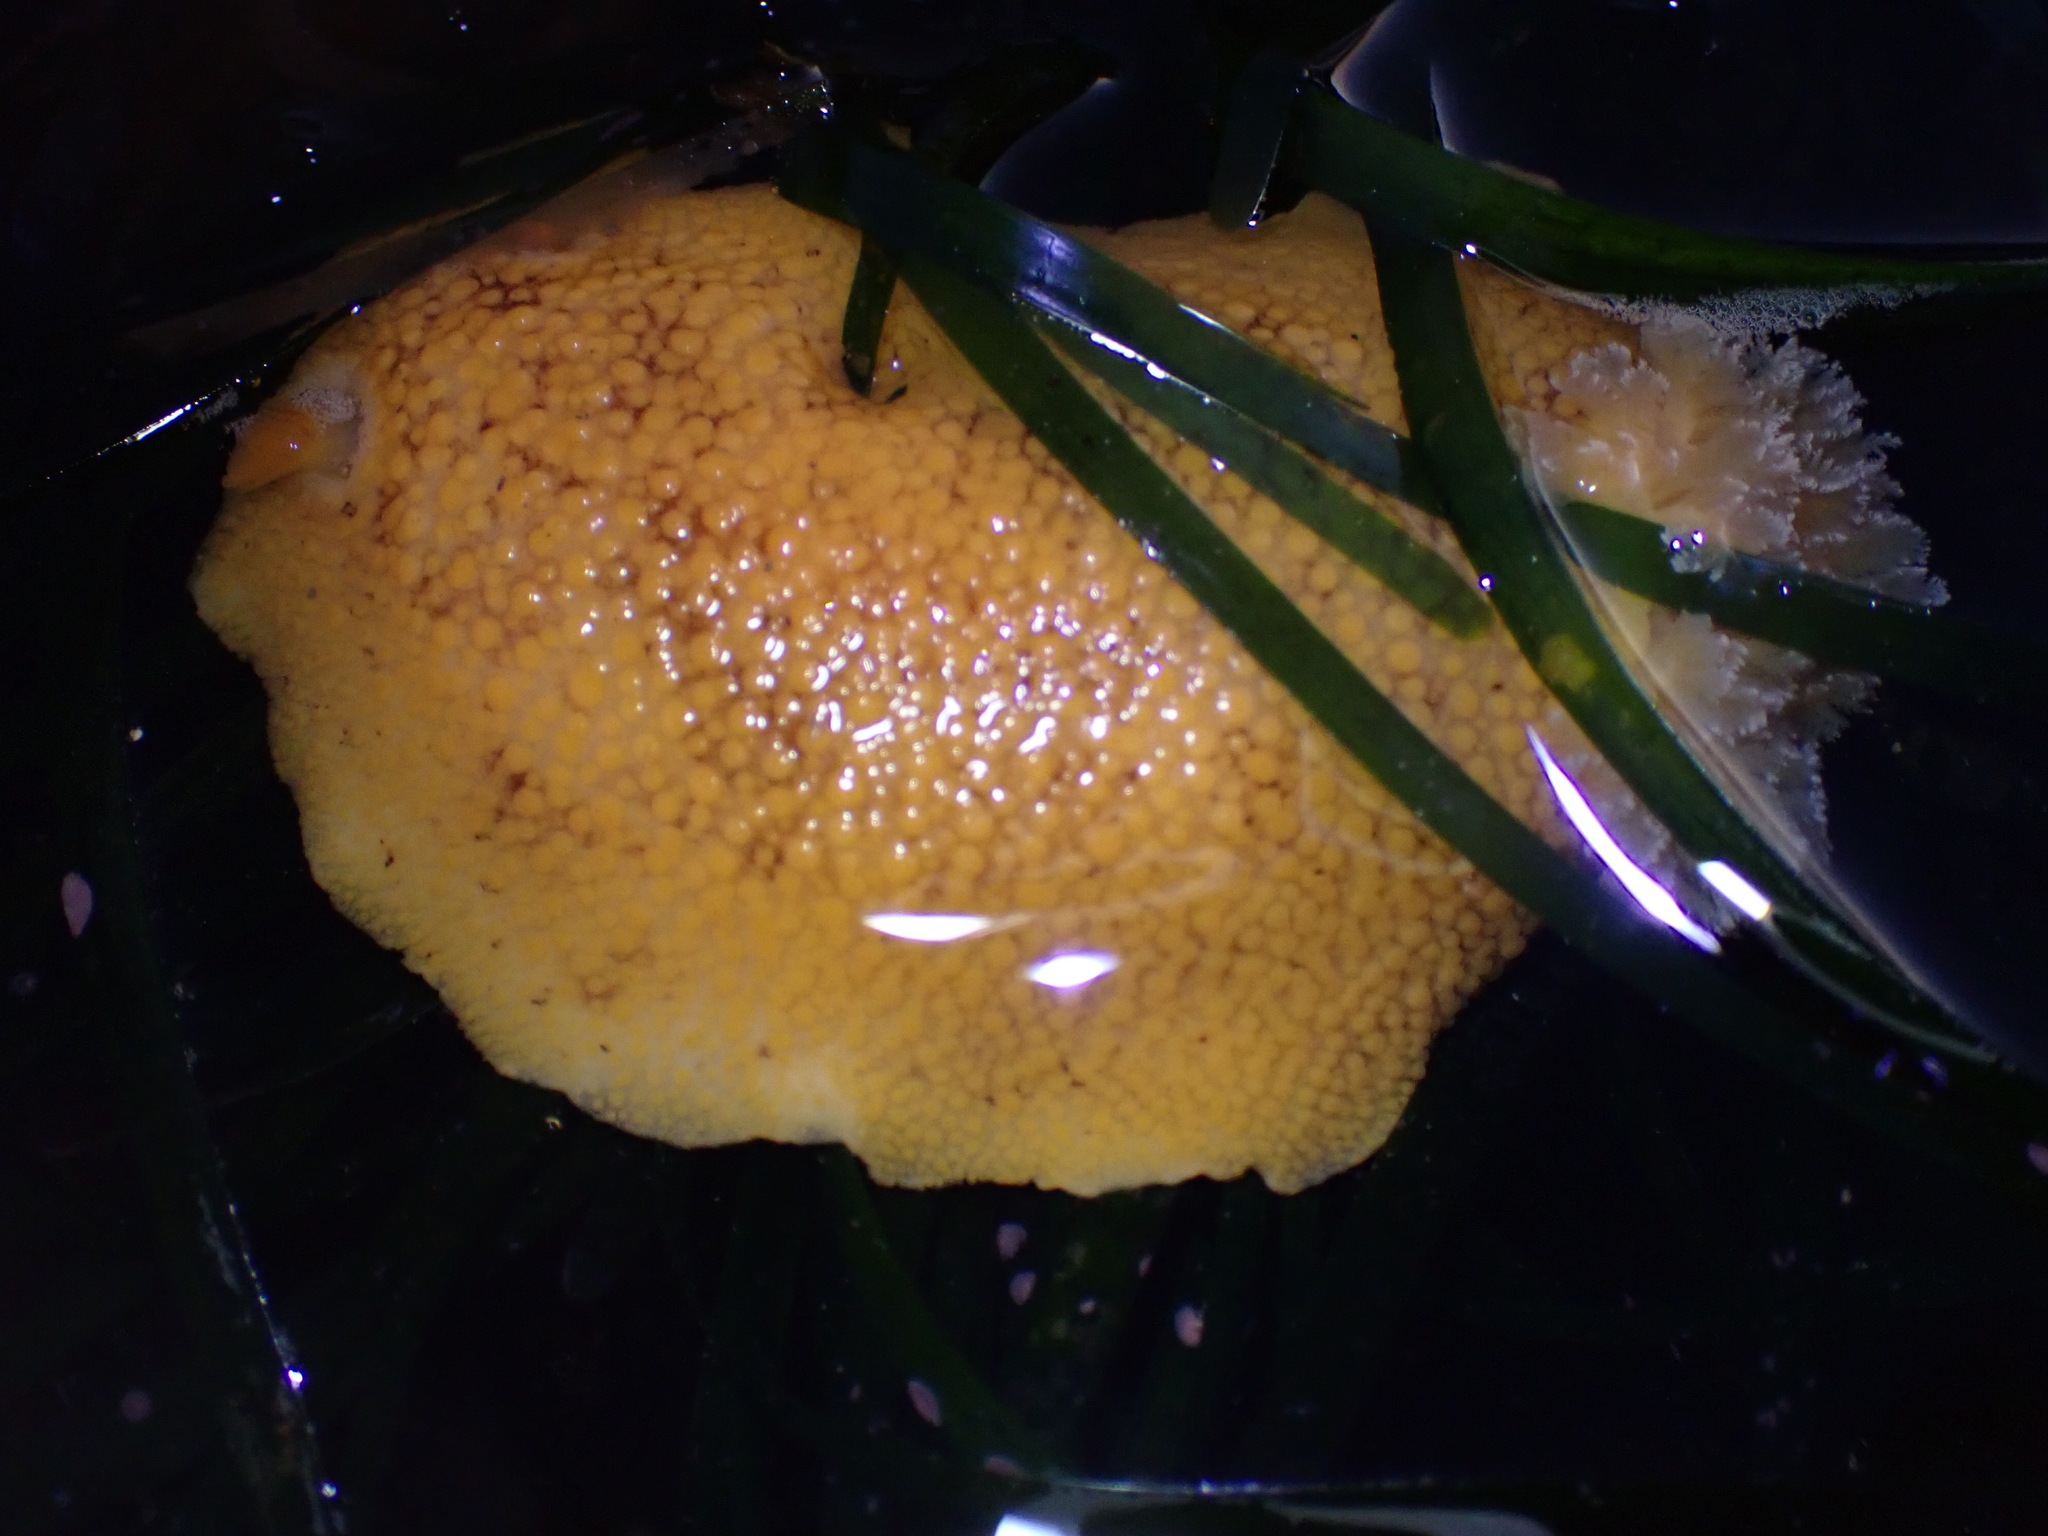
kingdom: Animalia
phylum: Mollusca
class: Gastropoda
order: Nudibranchia
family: Discodorididae
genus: Peltodoris
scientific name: Peltodoris nobilis
